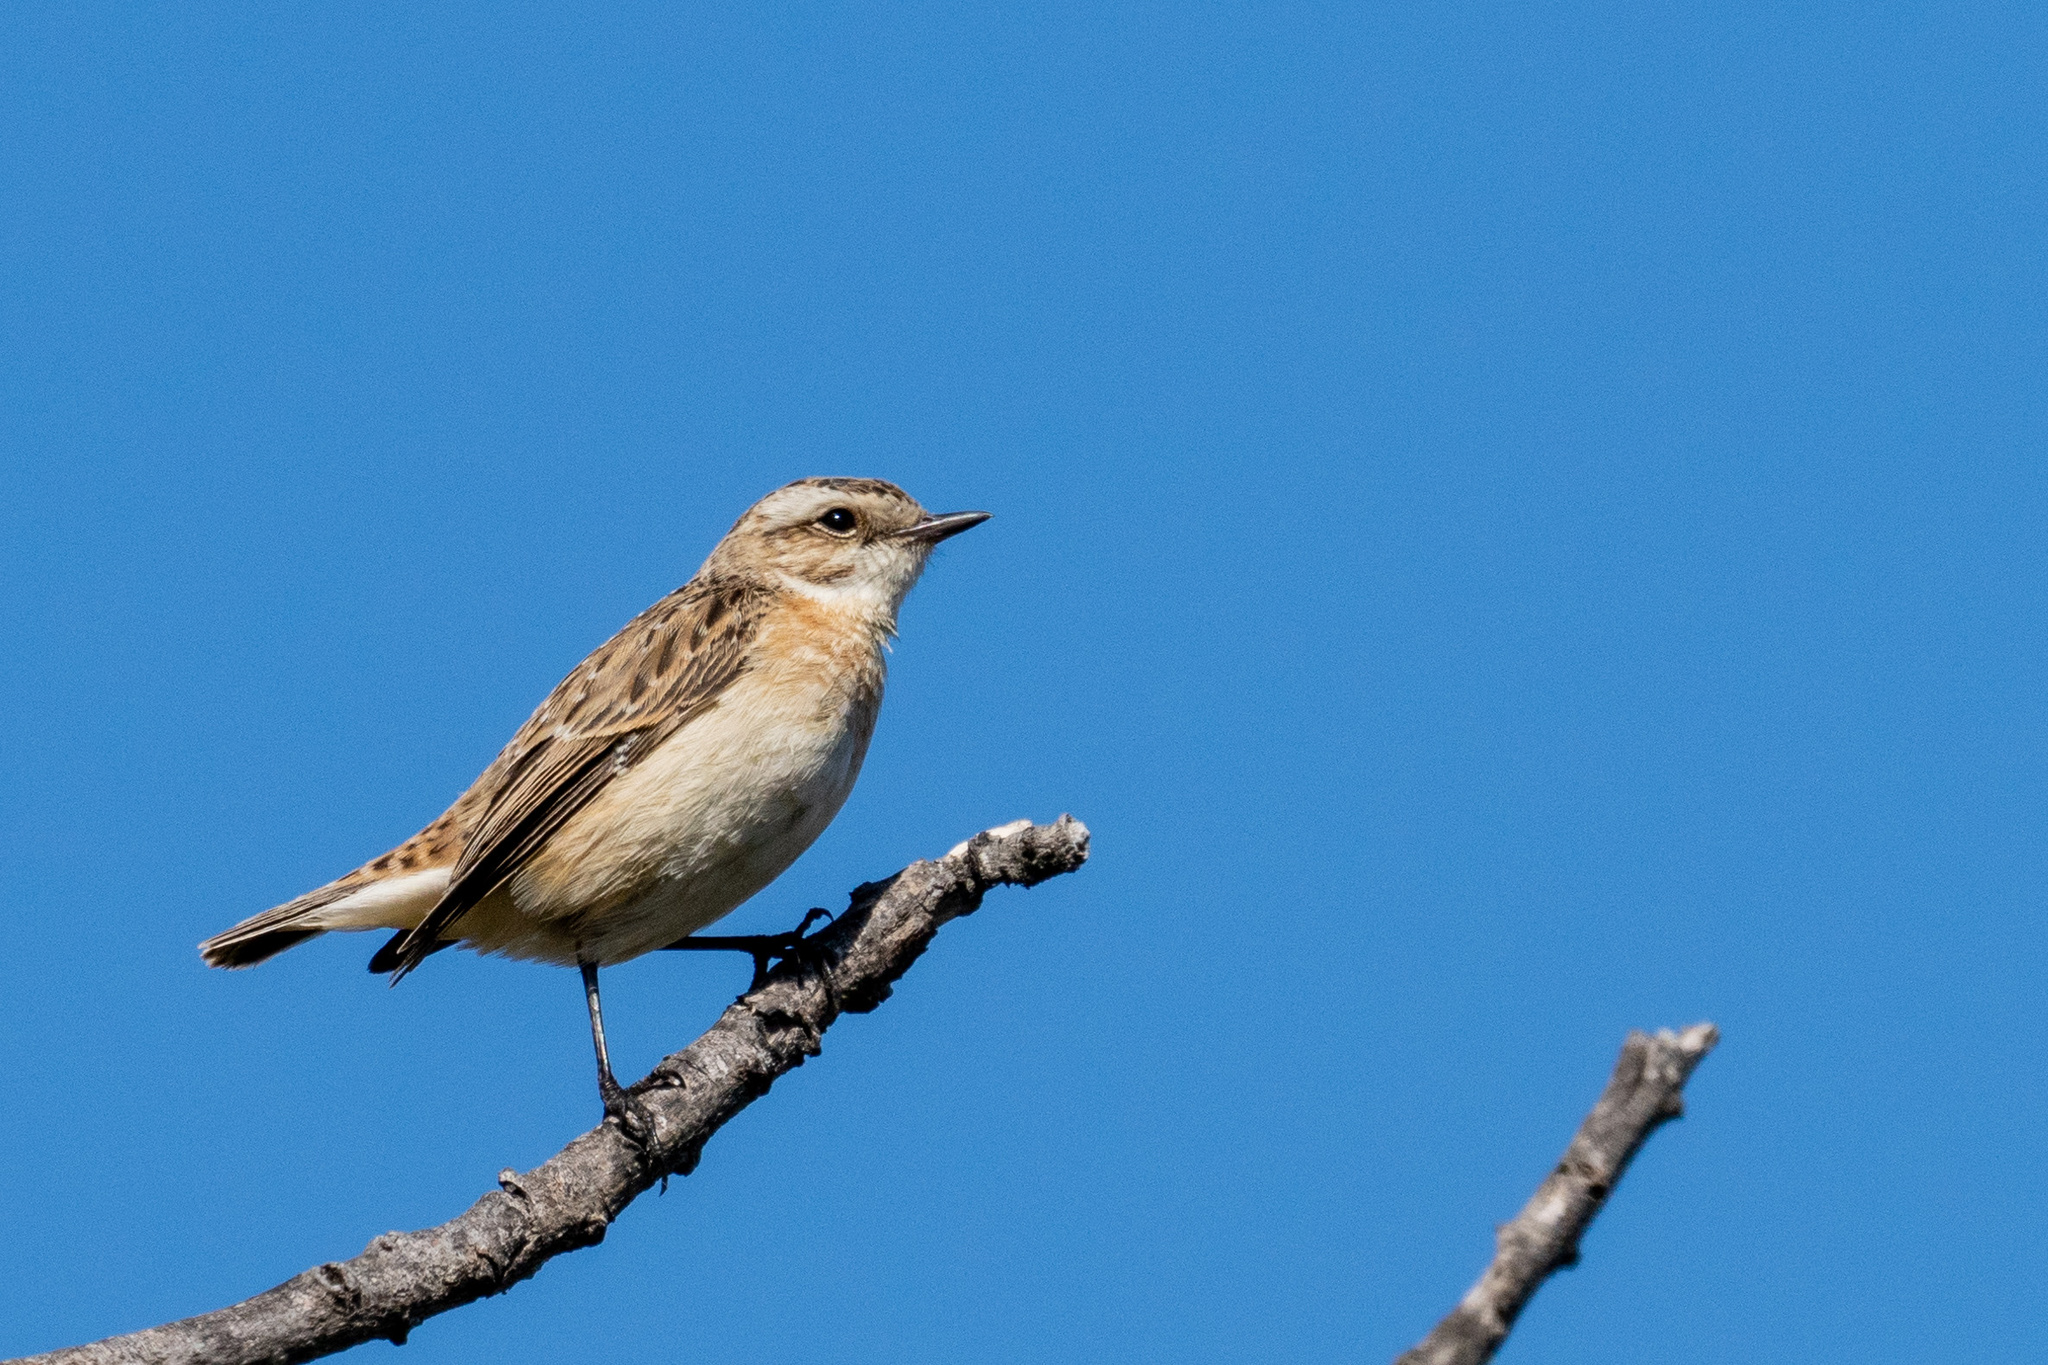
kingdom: Animalia
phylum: Chordata
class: Aves
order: Passeriformes
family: Muscicapidae
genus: Saxicola
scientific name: Saxicola rubetra
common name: Whinchat
